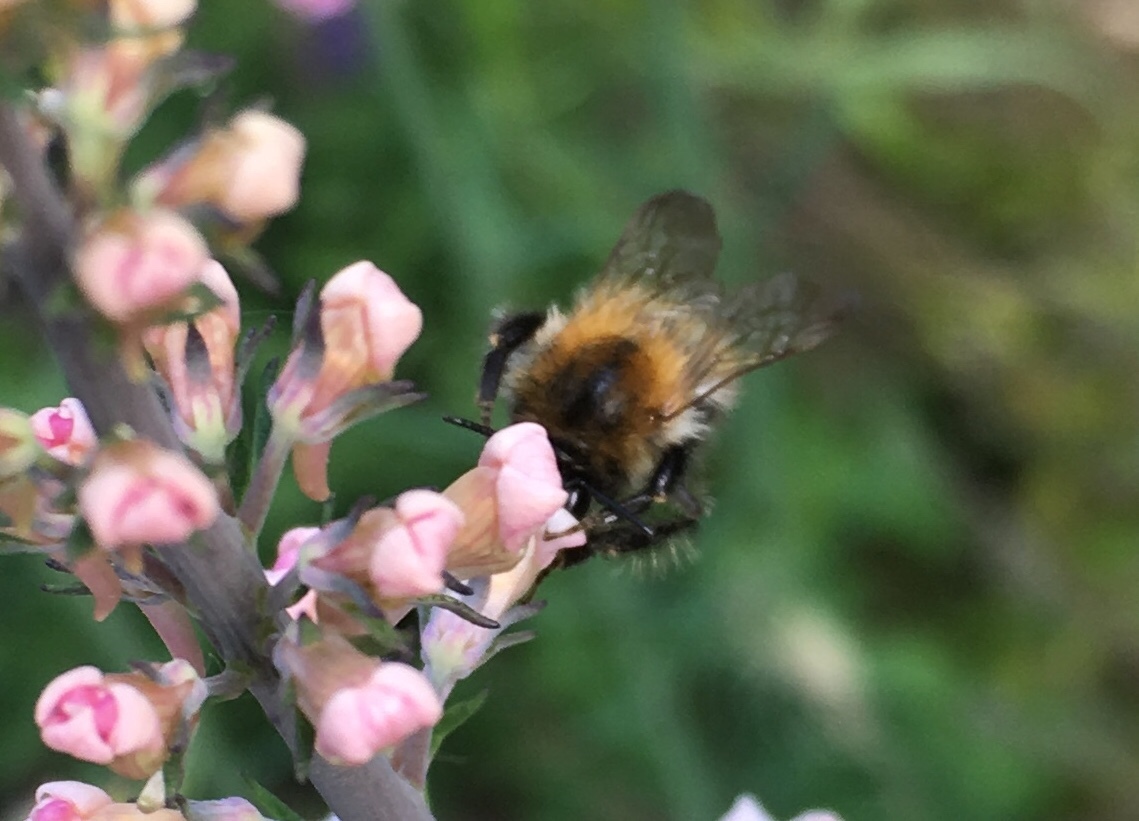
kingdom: Animalia
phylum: Arthropoda
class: Insecta
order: Hymenoptera
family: Apidae
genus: Bombus
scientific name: Bombus pascuorum
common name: Common carder bee
